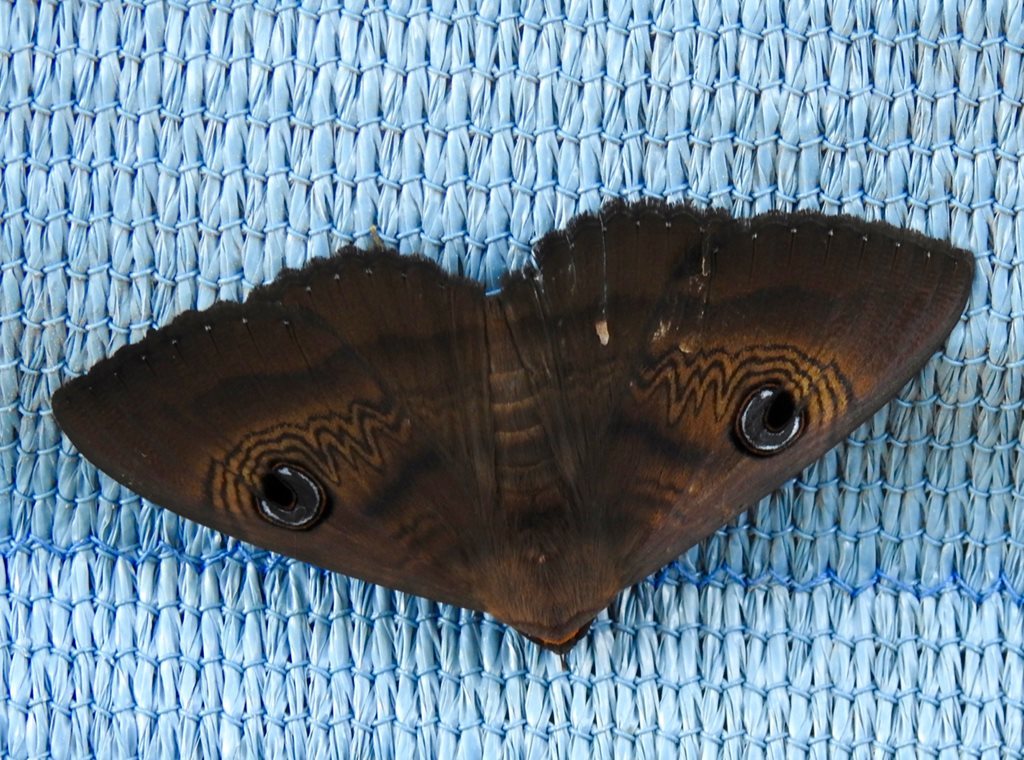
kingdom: Animalia
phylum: Arthropoda
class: Insecta
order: Lepidoptera
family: Erebidae
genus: Dasypodia
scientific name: Dasypodia selenophora
